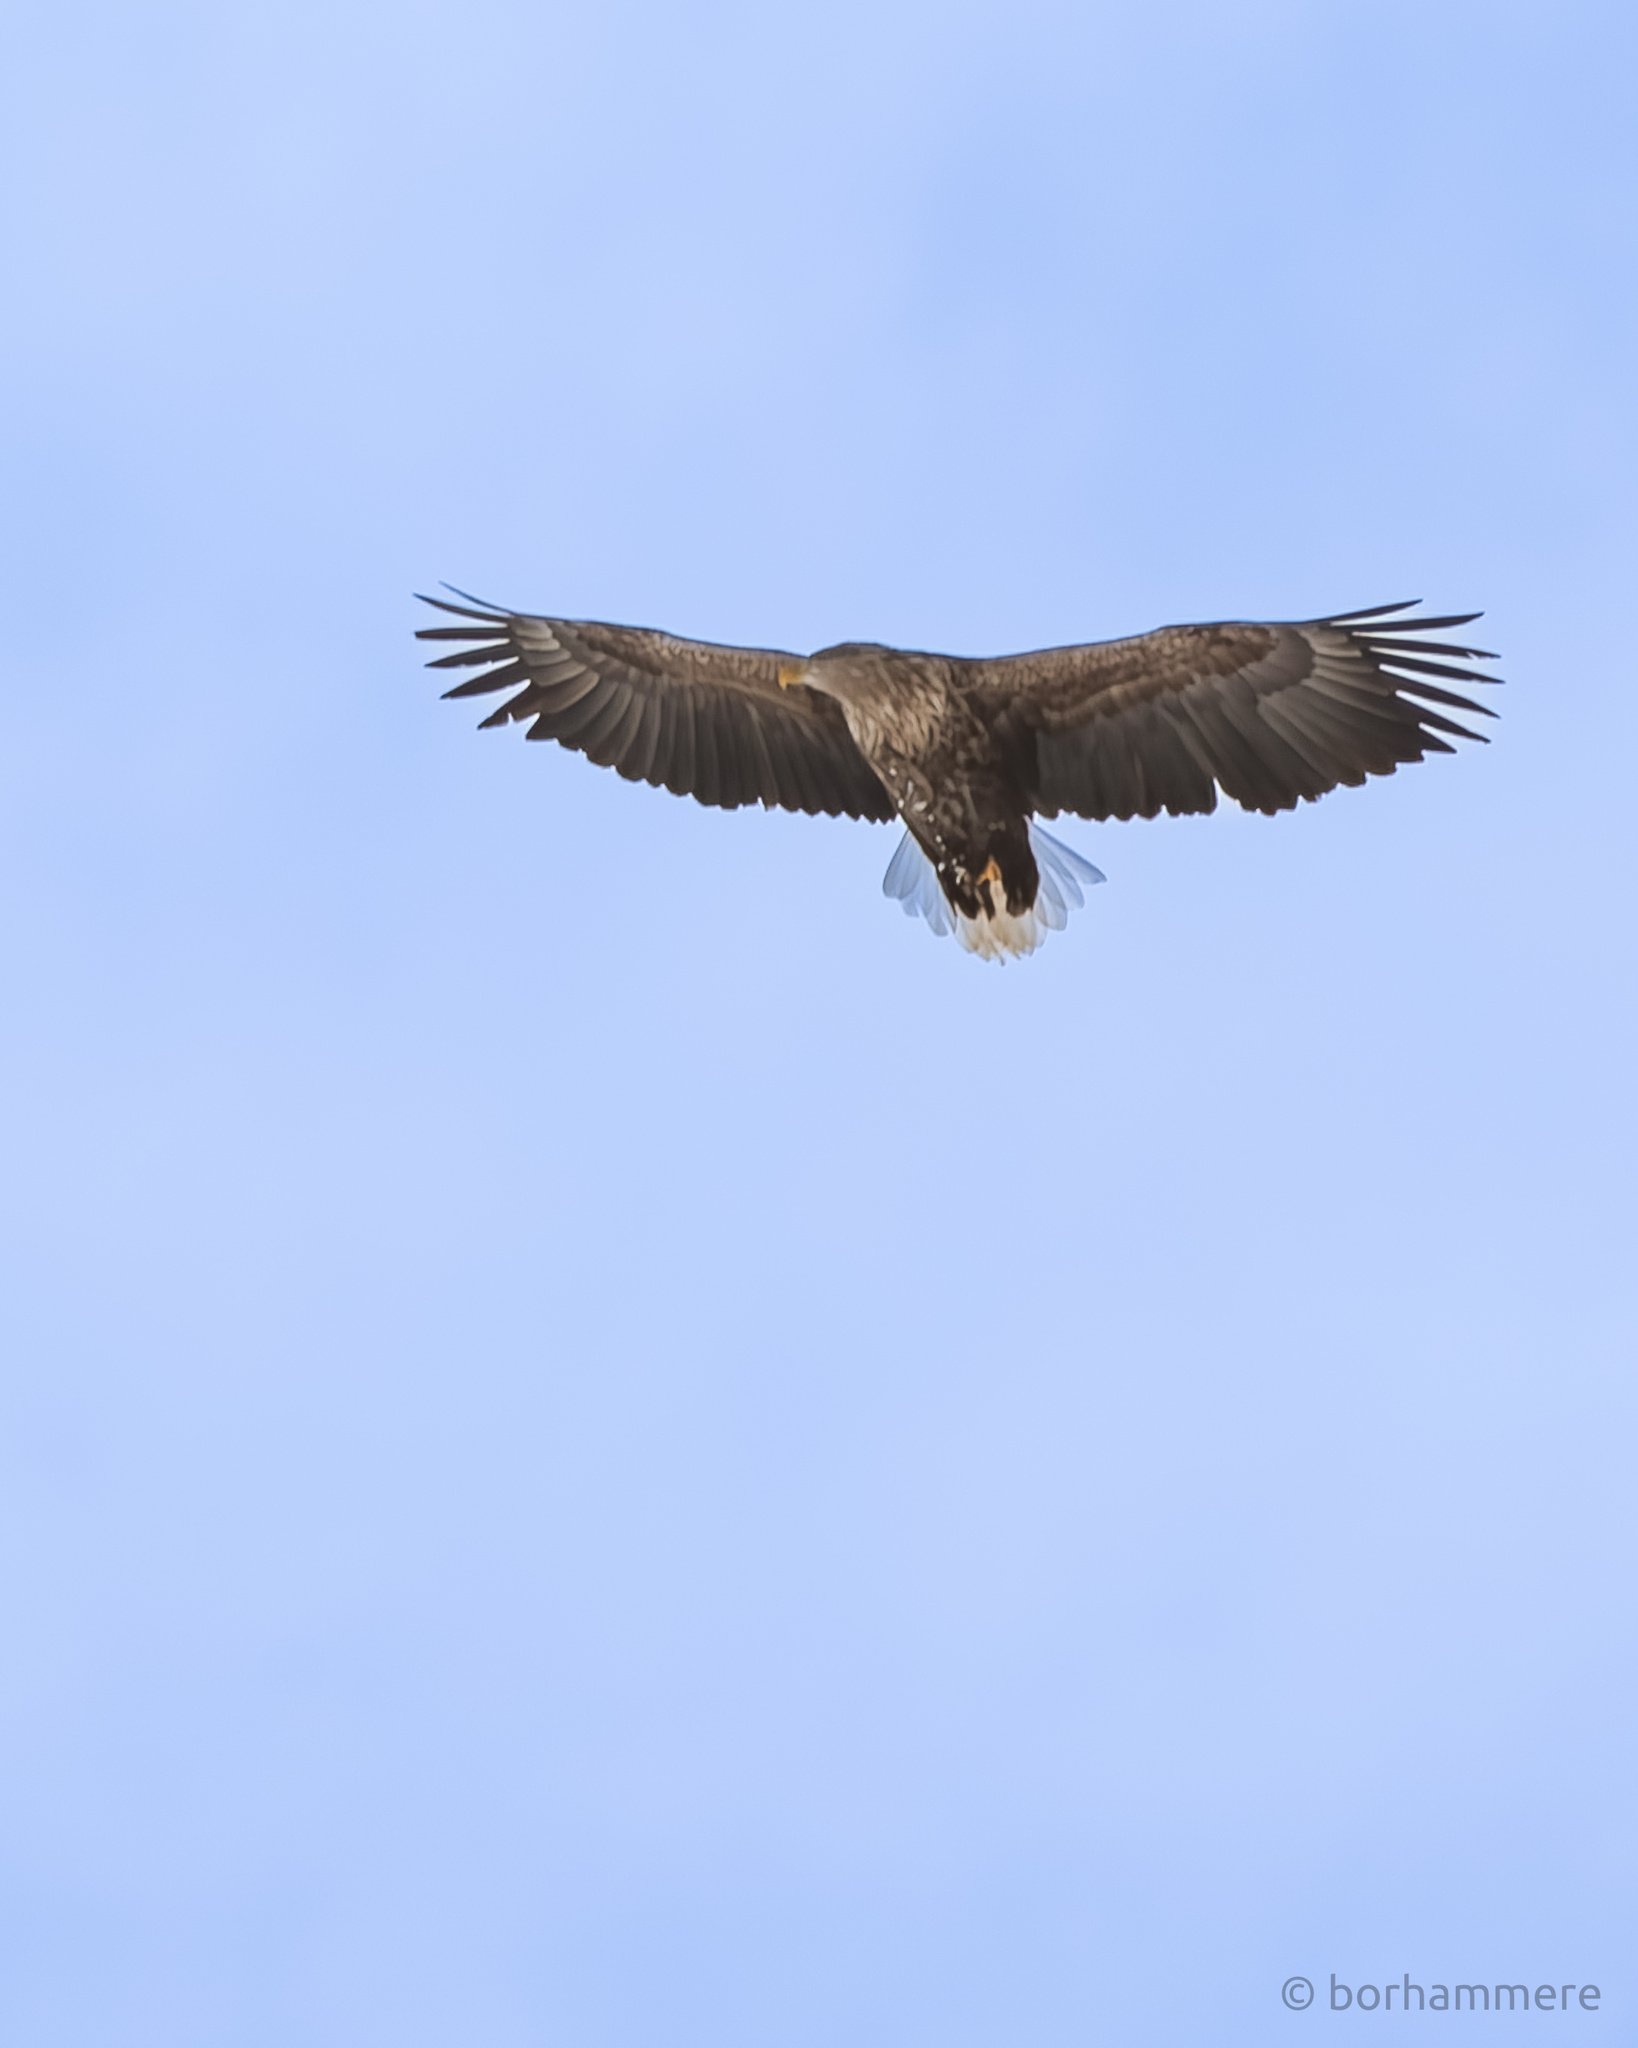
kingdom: Animalia
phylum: Chordata
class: Aves
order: Accipitriformes
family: Accipitridae
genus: Haliaeetus
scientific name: Haliaeetus albicilla
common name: White-tailed eagle
